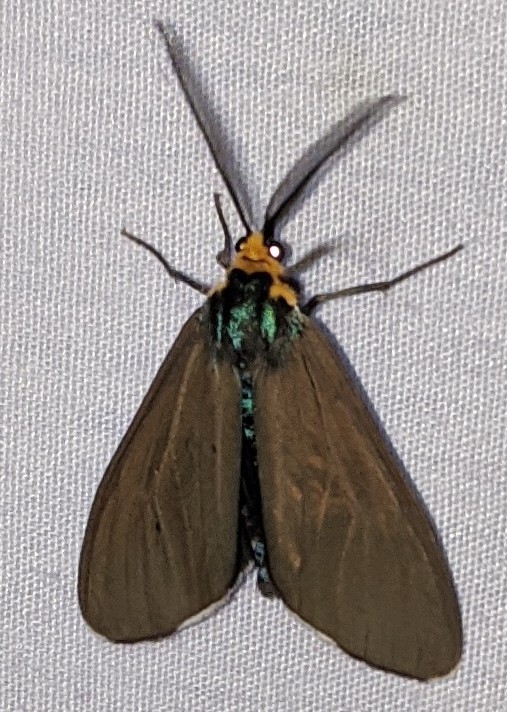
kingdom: Animalia
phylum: Arthropoda
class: Insecta
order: Lepidoptera
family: Erebidae
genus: Ctenucha
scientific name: Ctenucha virginica
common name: Virginia ctenucha moth
